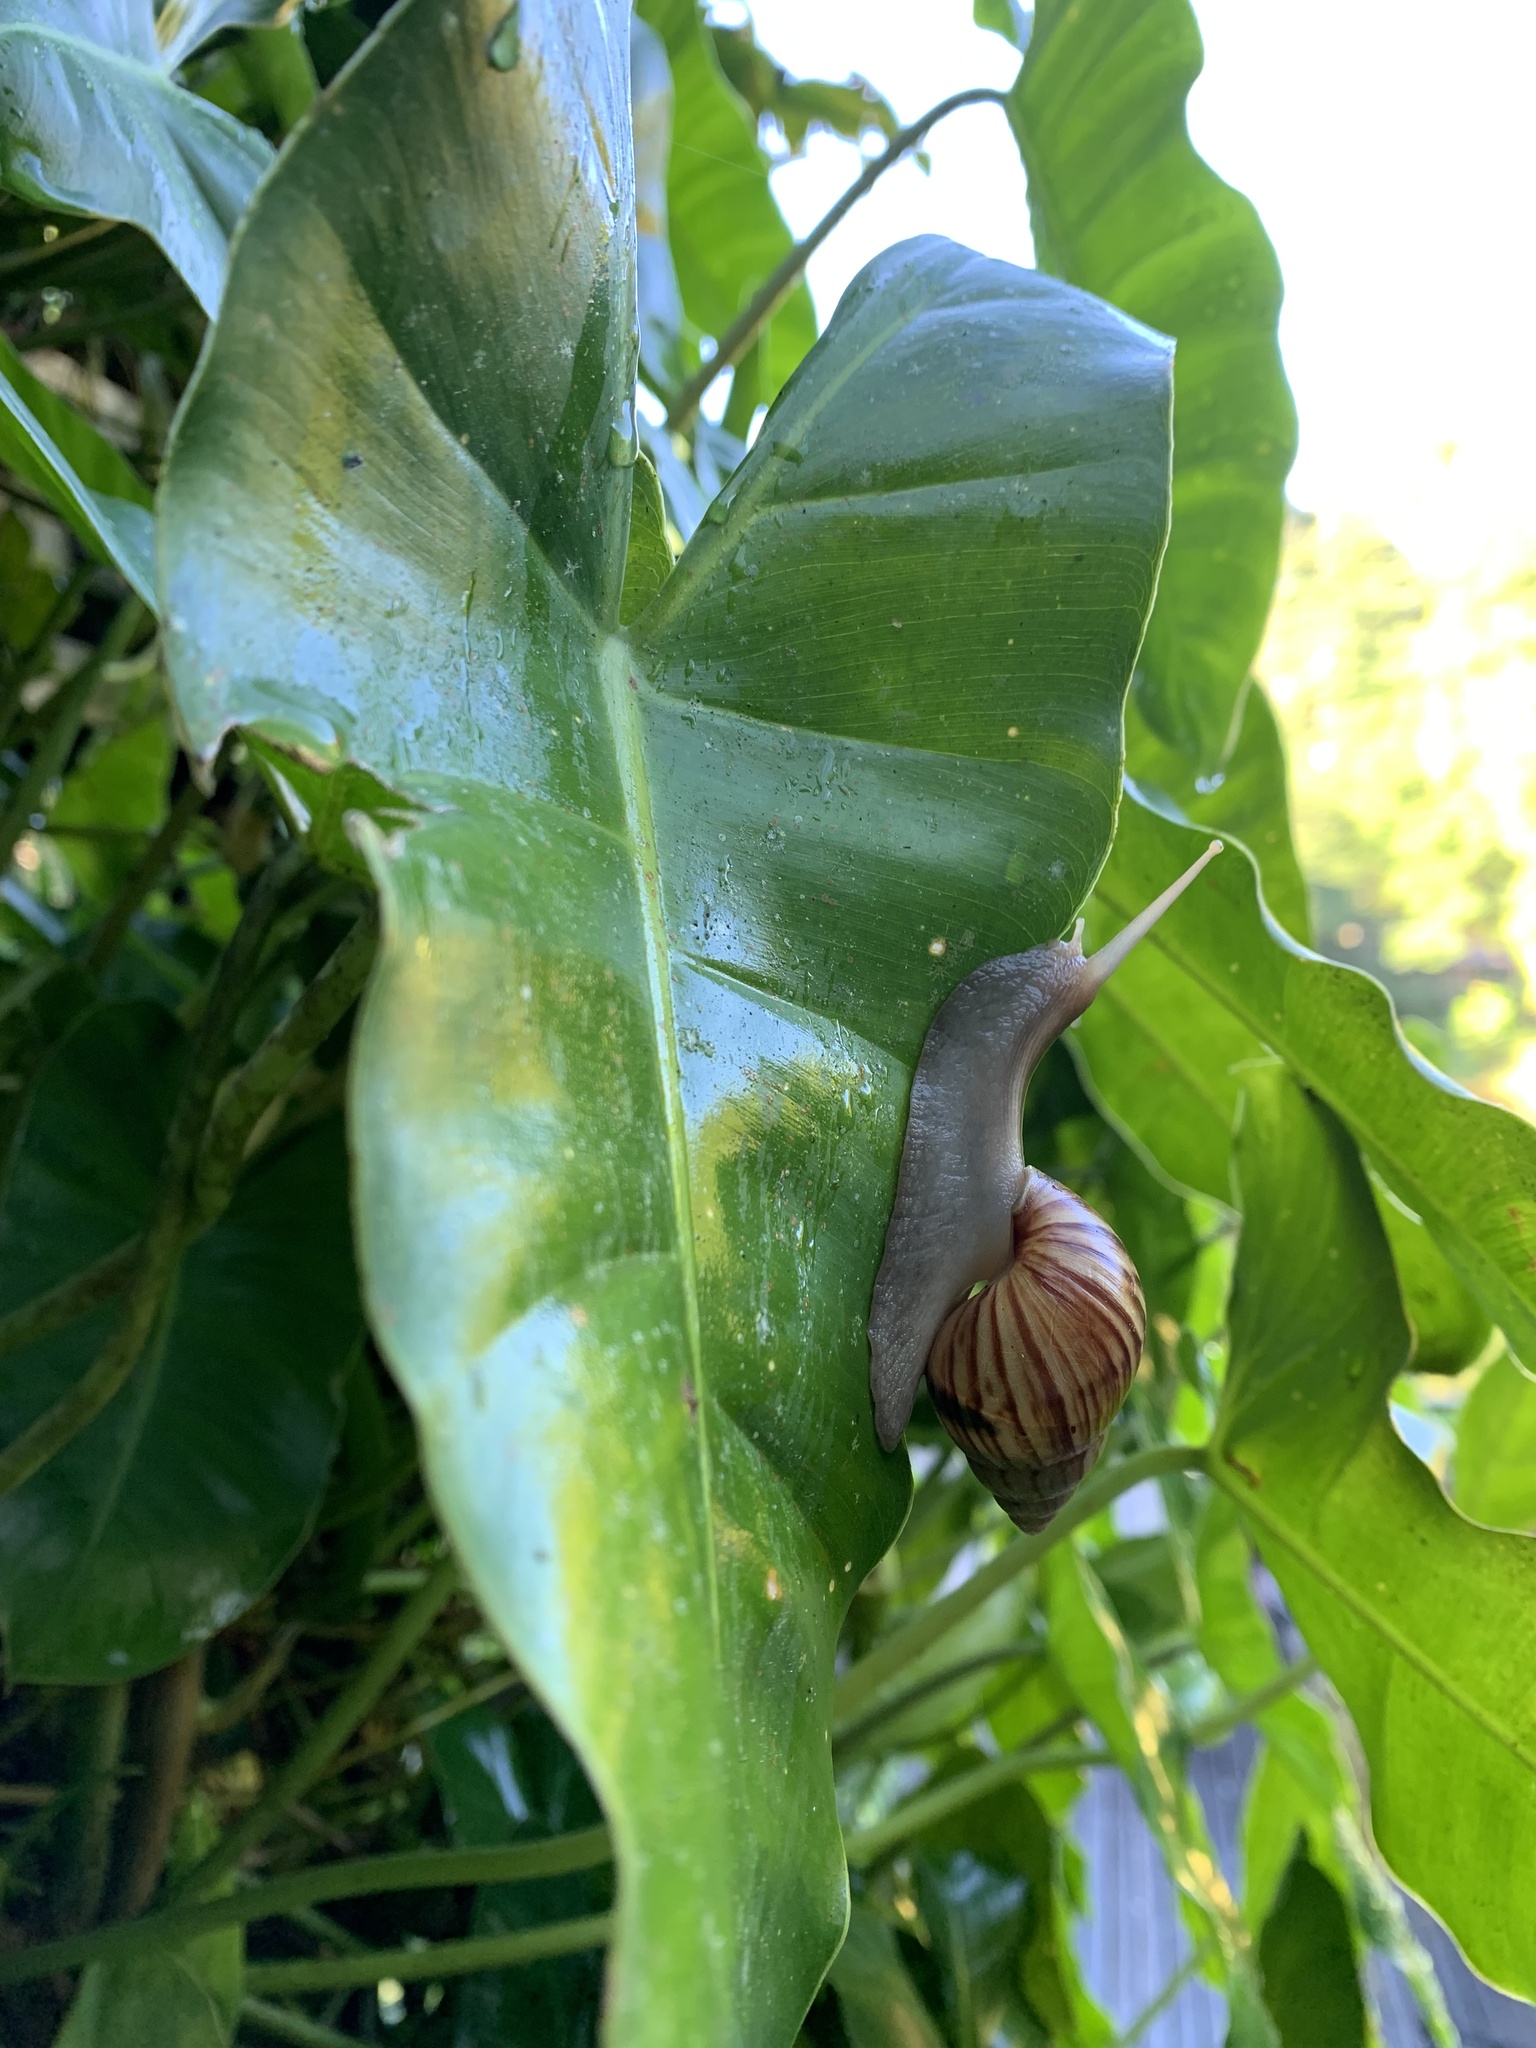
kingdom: Animalia
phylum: Mollusca
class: Gastropoda
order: Stylommatophora
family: Achatinidae
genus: Lissachatina
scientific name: Lissachatina fulica
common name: Giant african snail
